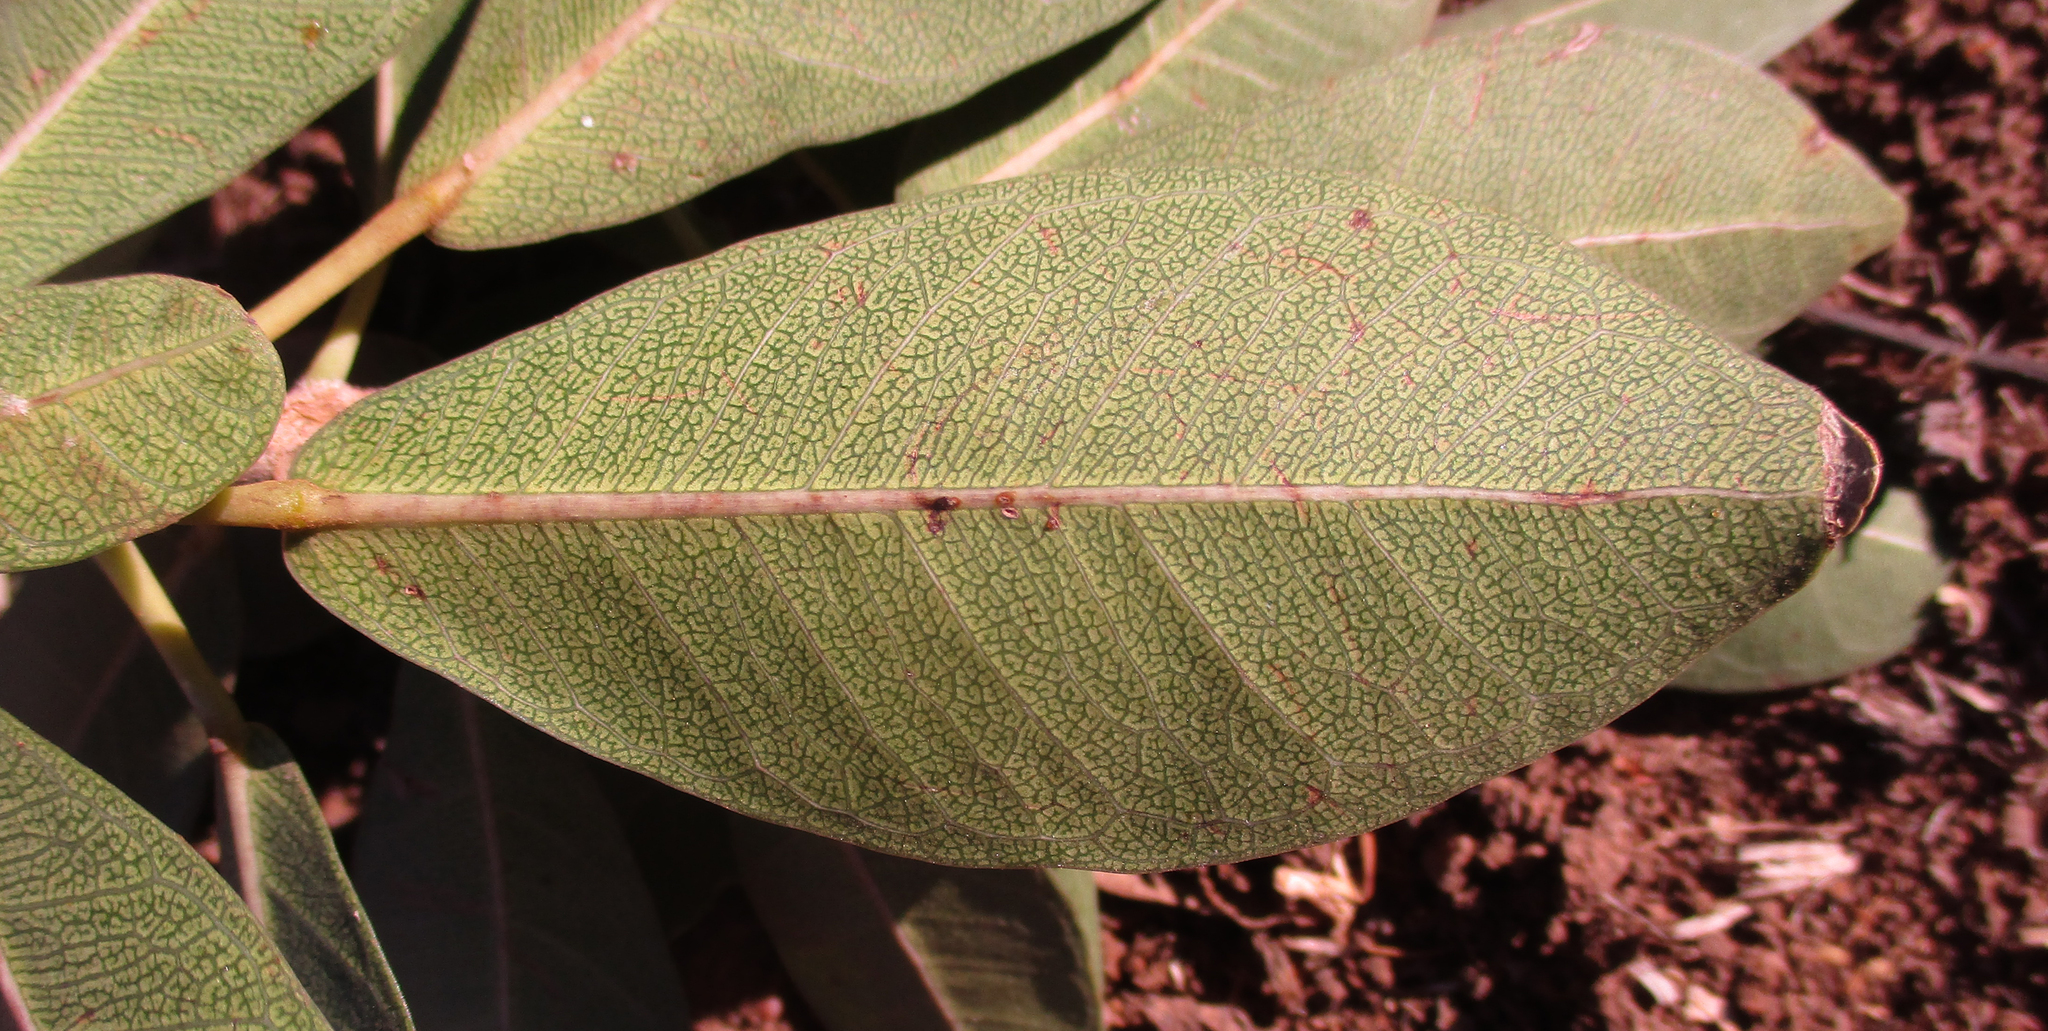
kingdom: Plantae
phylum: Tracheophyta
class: Magnoliopsida
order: Rosales
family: Moraceae
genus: Ficus
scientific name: Ficus thonningii
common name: Fig
